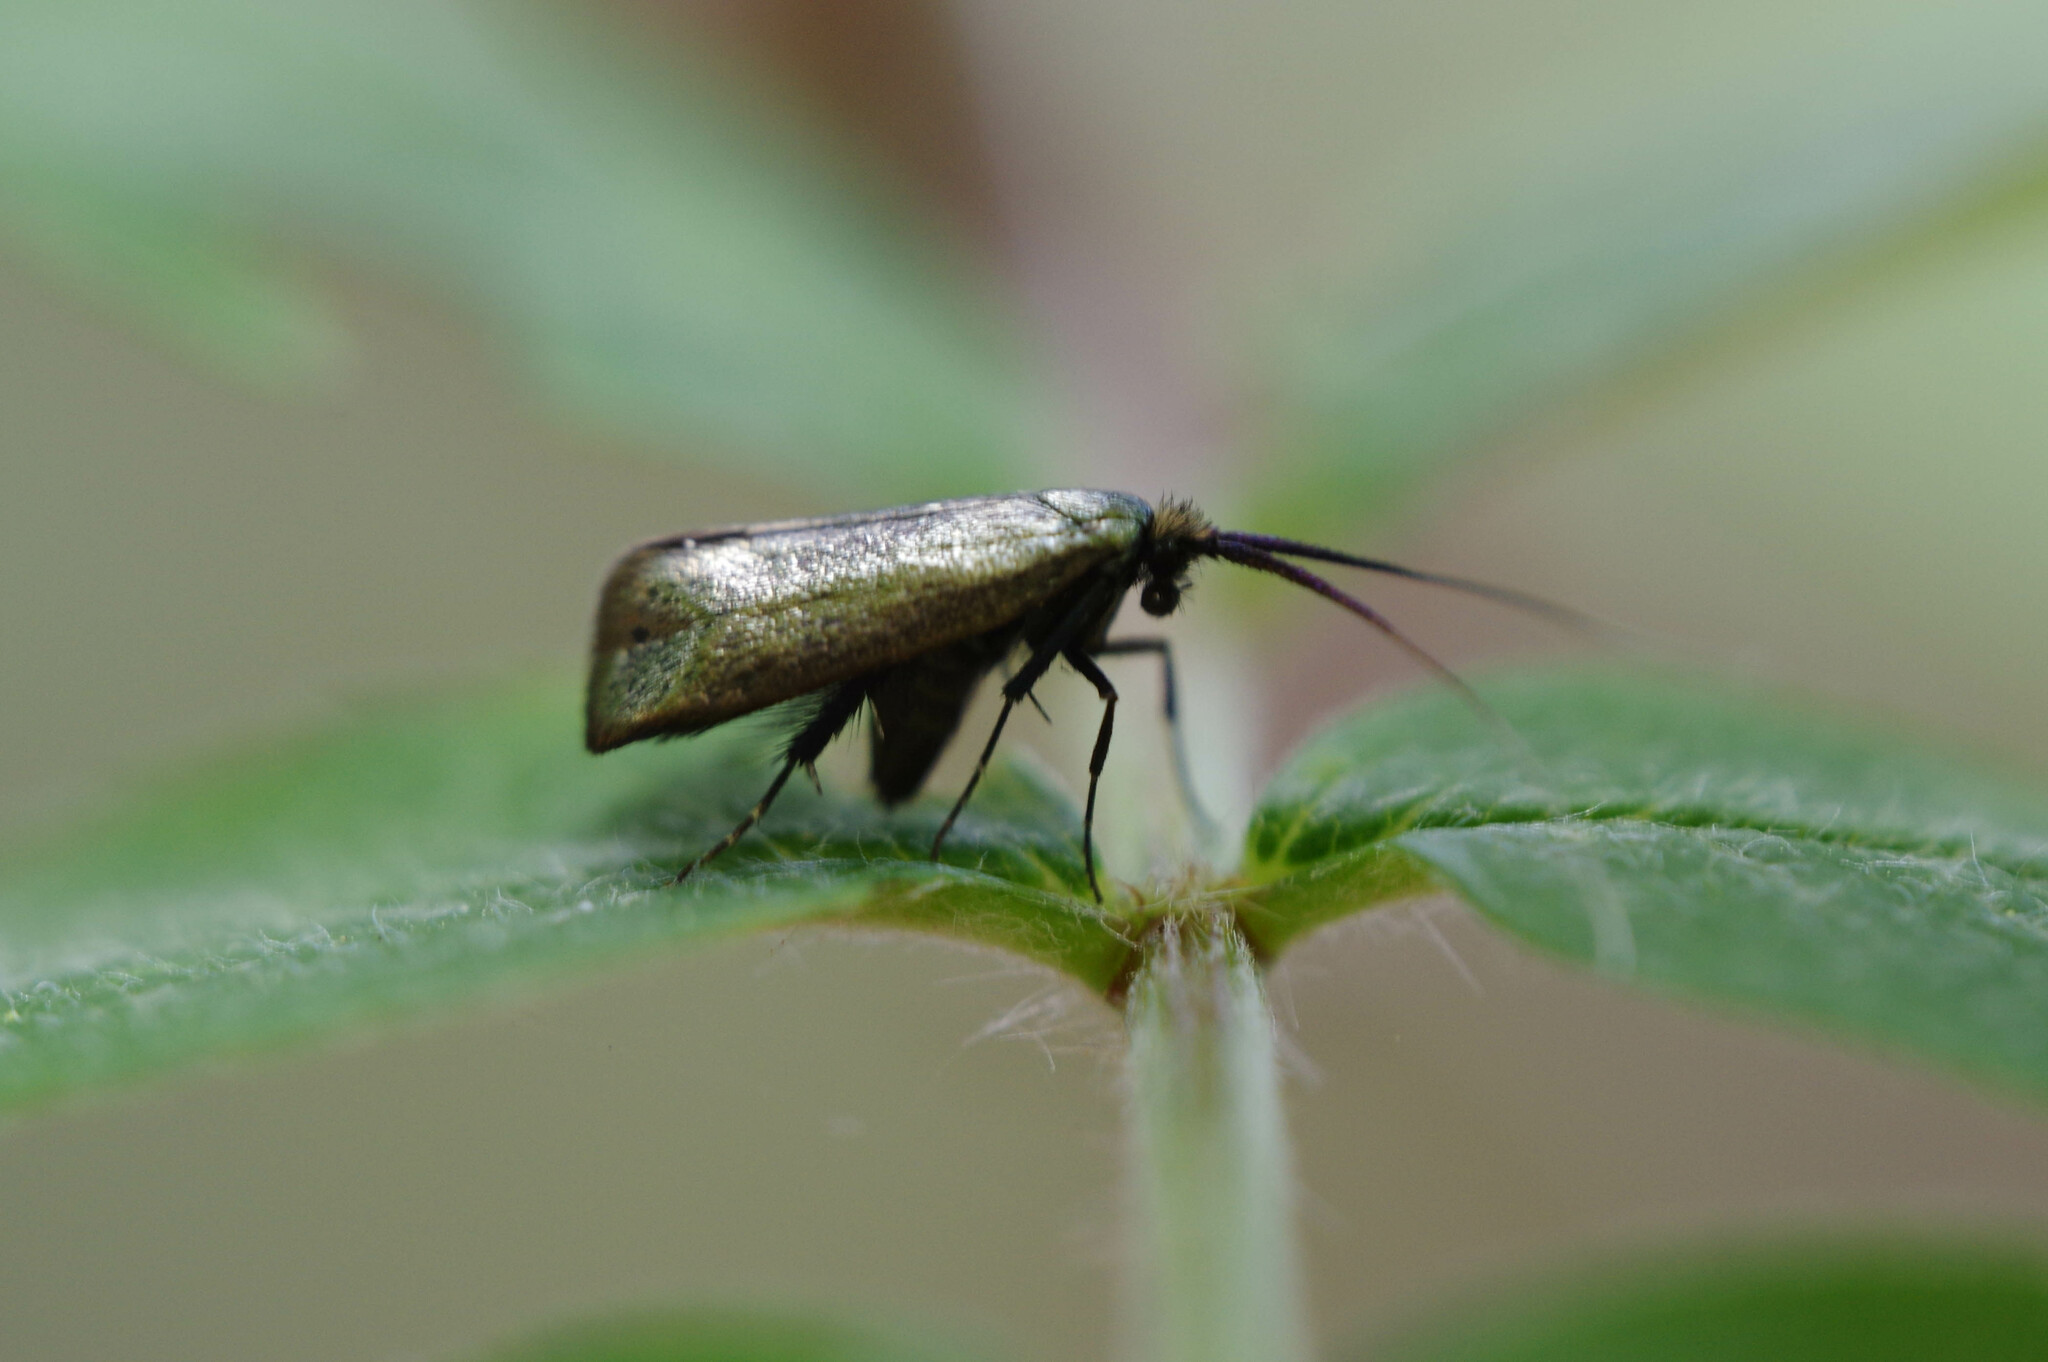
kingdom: Animalia
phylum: Arthropoda
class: Insecta
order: Lepidoptera
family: Adelidae
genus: Adela
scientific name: Adela viridella
